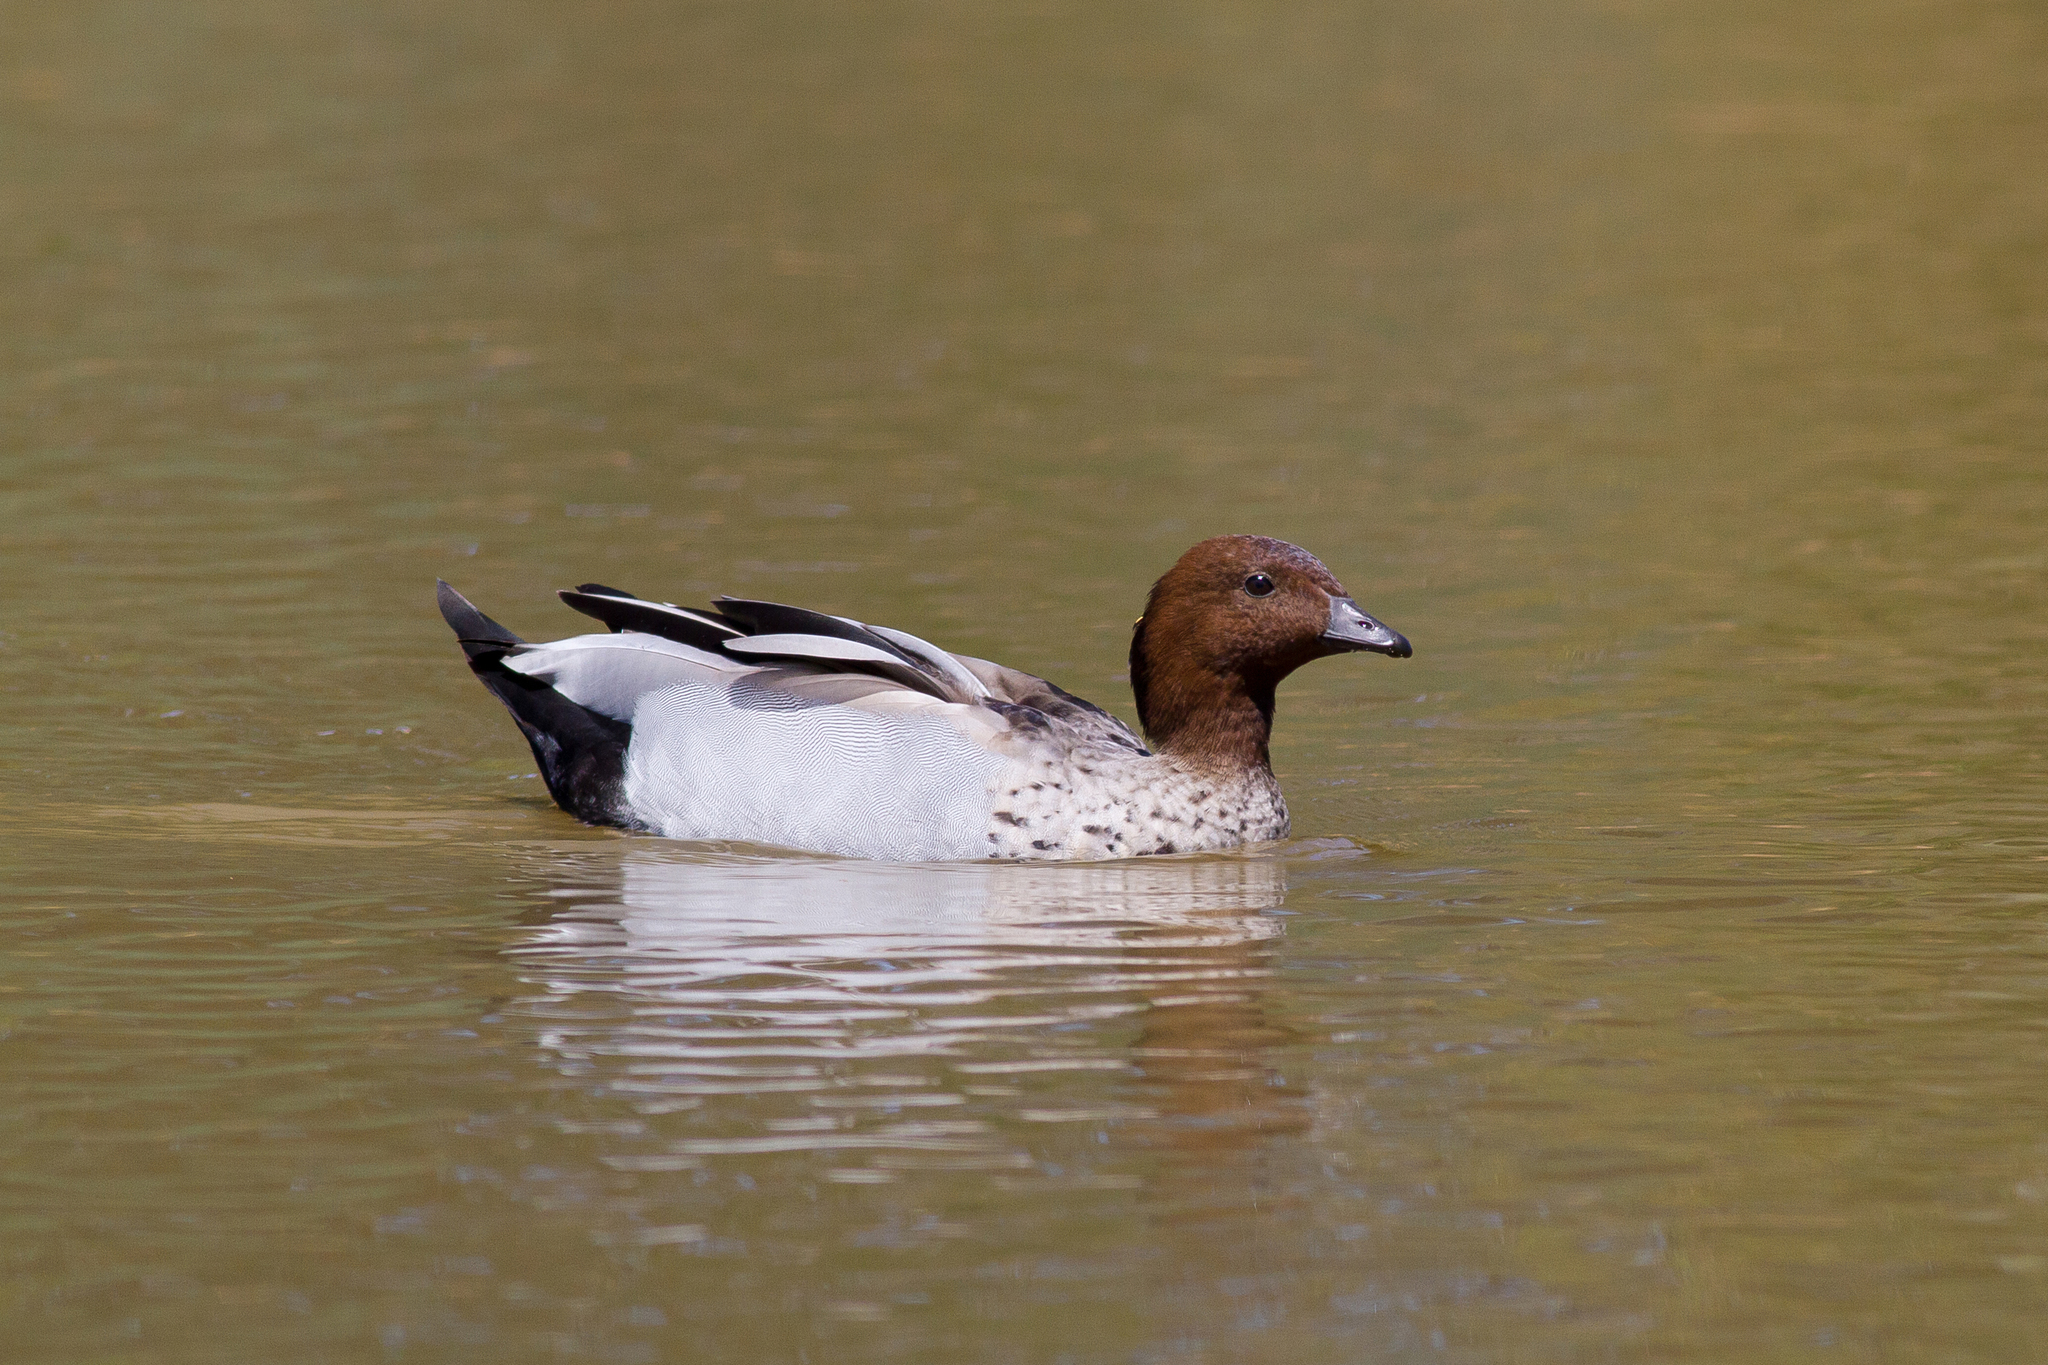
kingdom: Animalia
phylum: Chordata
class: Aves
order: Anseriformes
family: Anatidae
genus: Chenonetta
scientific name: Chenonetta jubata
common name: Maned duck
